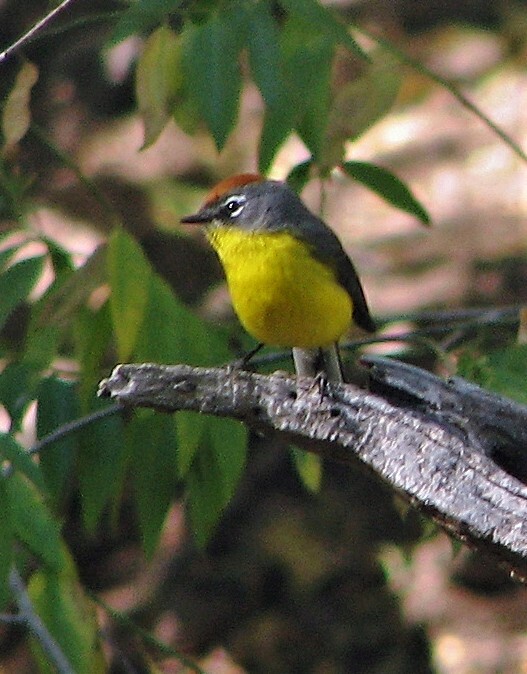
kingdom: Animalia
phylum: Chordata
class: Aves
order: Passeriformes
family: Parulidae
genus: Myioborus
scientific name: Myioborus brunniceps
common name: Brown-capped whitestart
